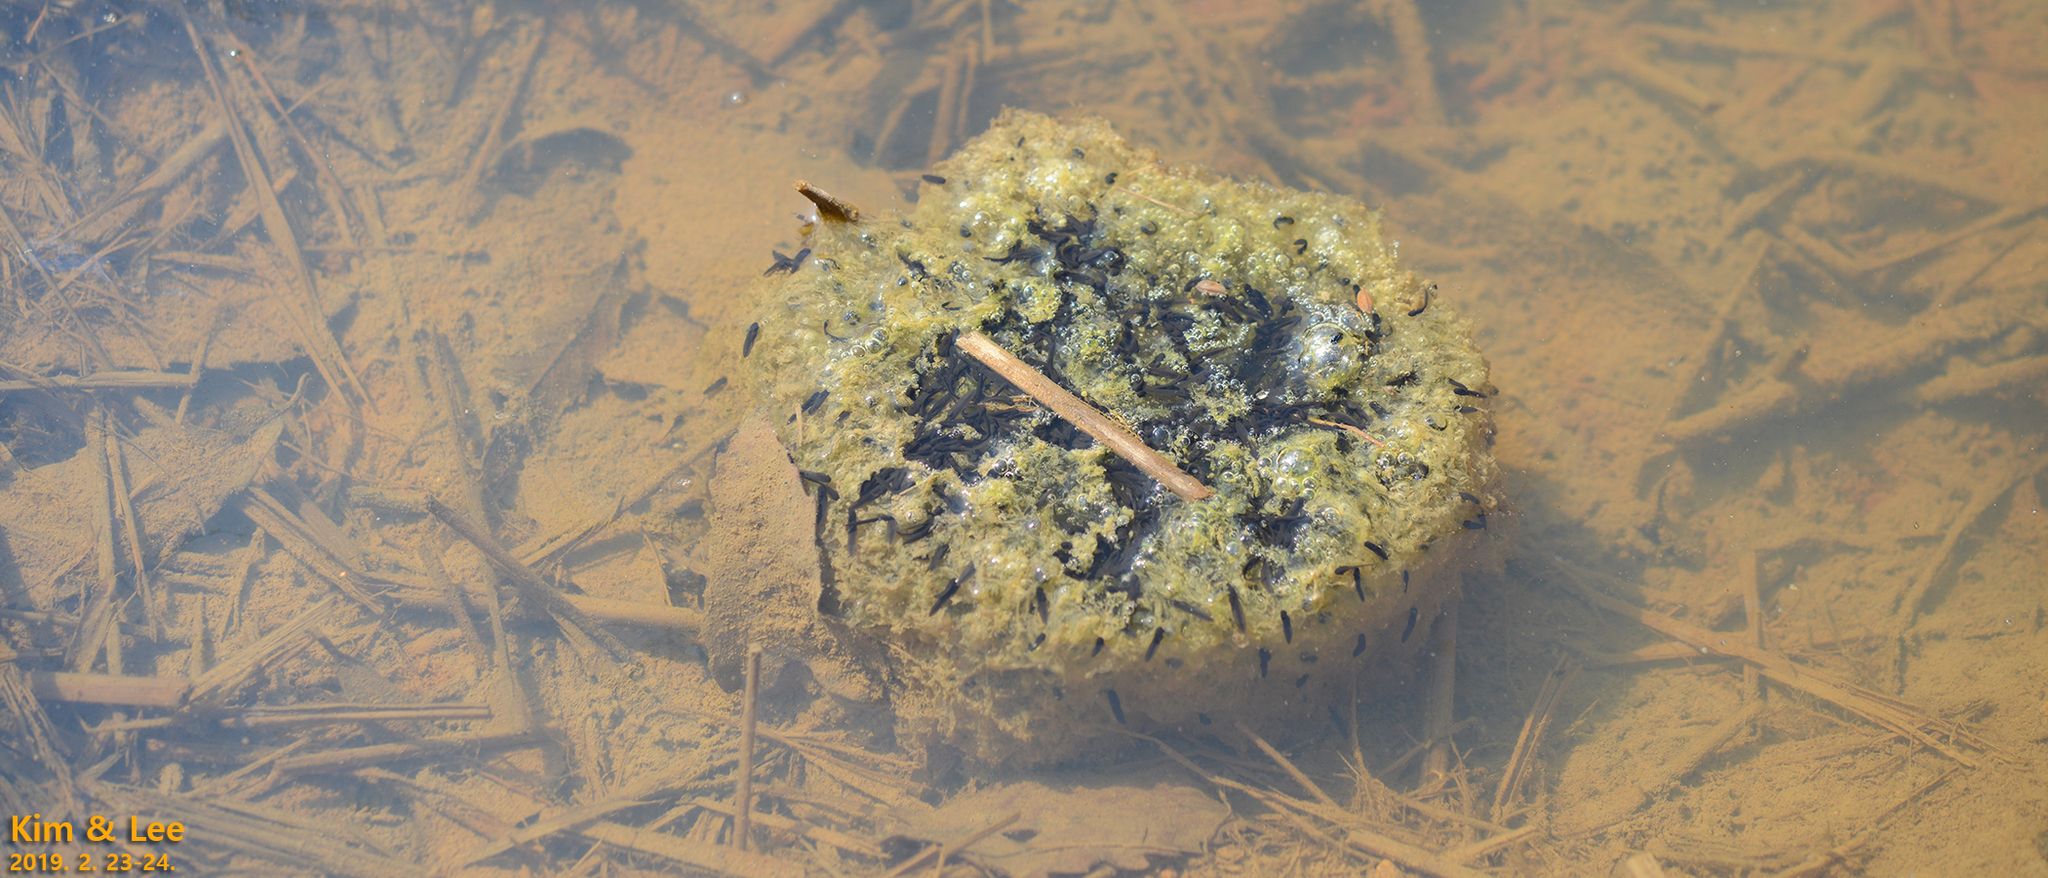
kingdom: Animalia
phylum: Chordata
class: Amphibia
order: Anura
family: Ranidae
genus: Rana
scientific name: Rana uenoi
